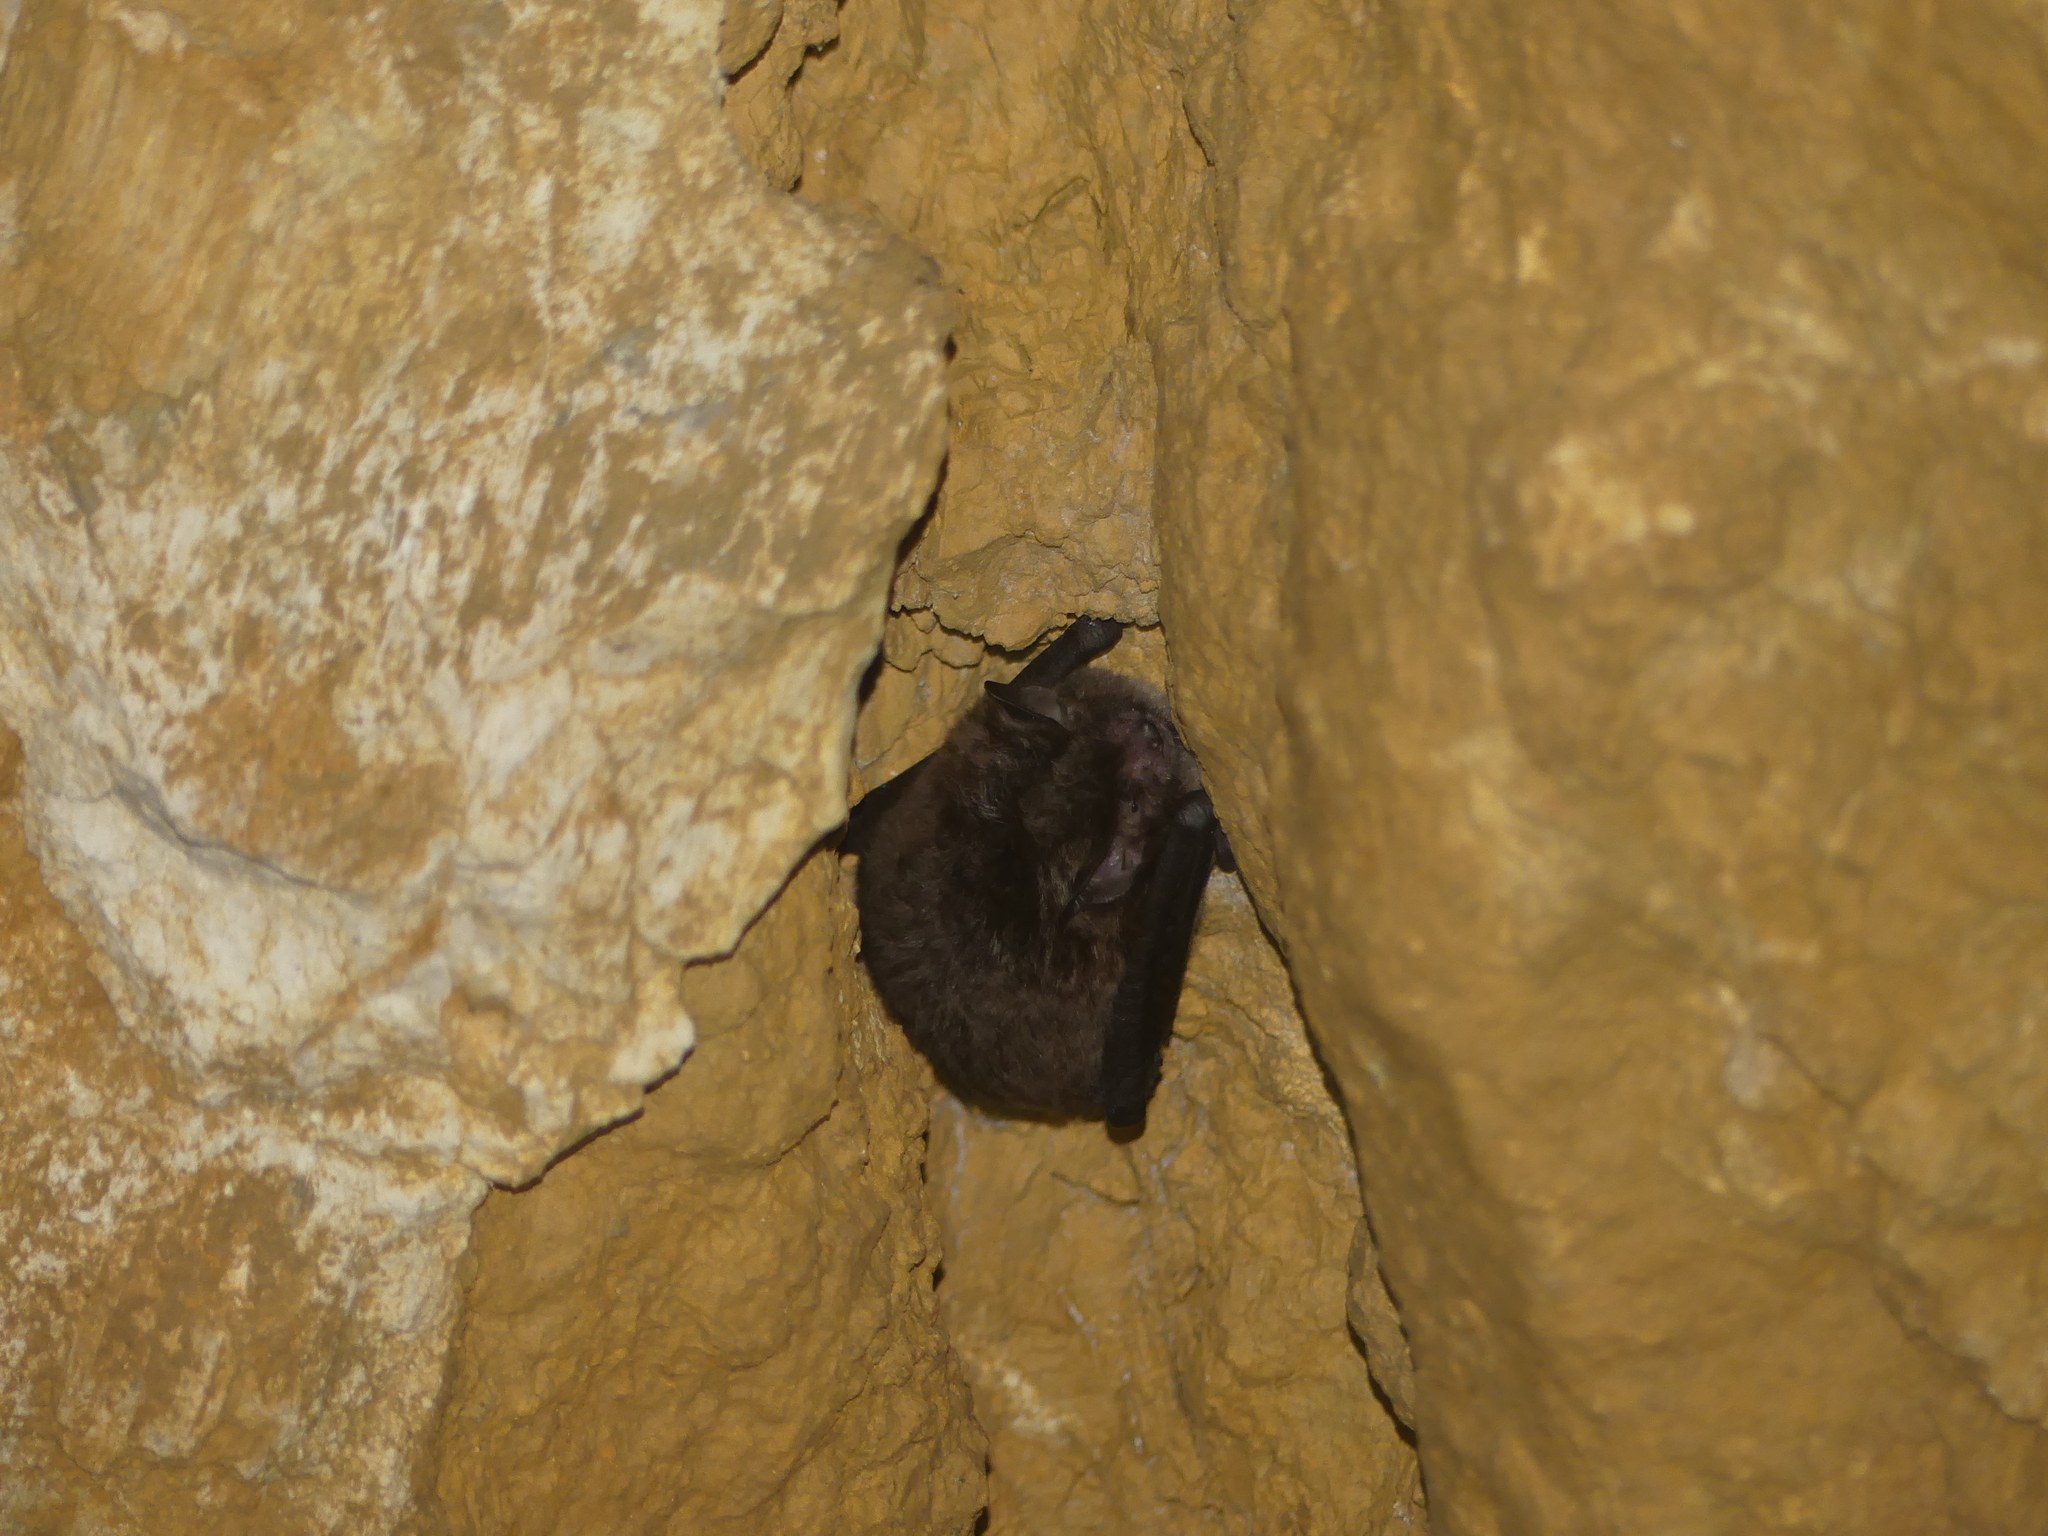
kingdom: Animalia
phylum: Chordata
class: Mammalia
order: Chiroptera
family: Vespertilionidae
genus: Myotis
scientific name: Myotis daubentonii
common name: Daubenton's myotis
